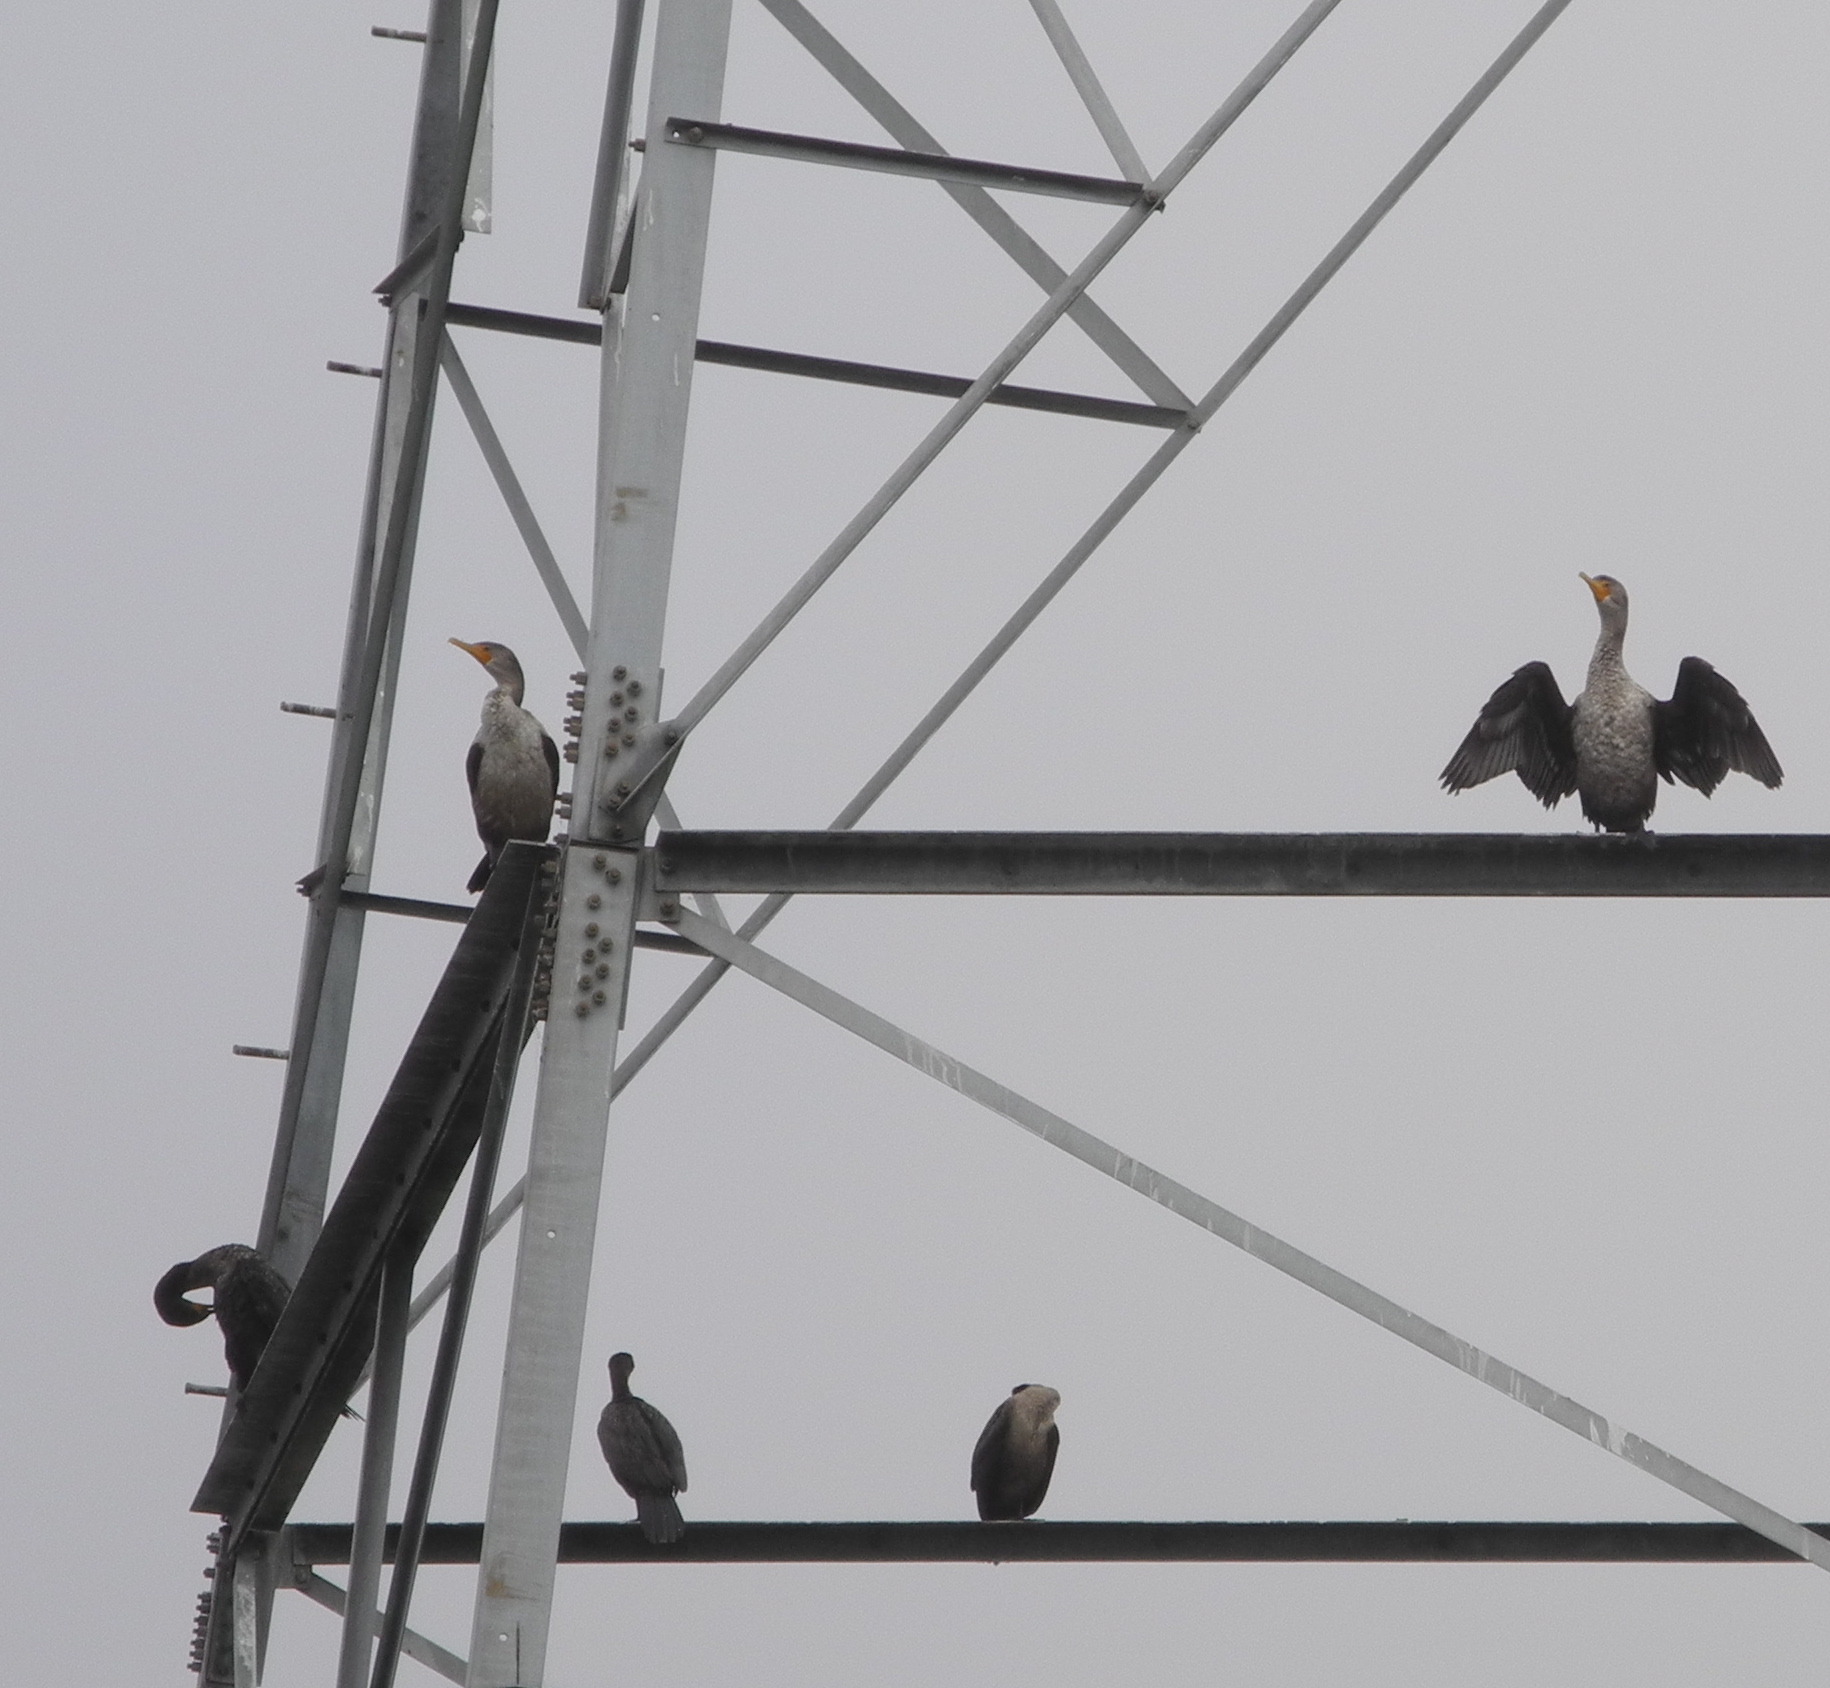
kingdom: Animalia
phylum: Chordata
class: Aves
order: Suliformes
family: Phalacrocoracidae
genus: Phalacrocorax
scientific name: Phalacrocorax auritus
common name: Double-crested cormorant
